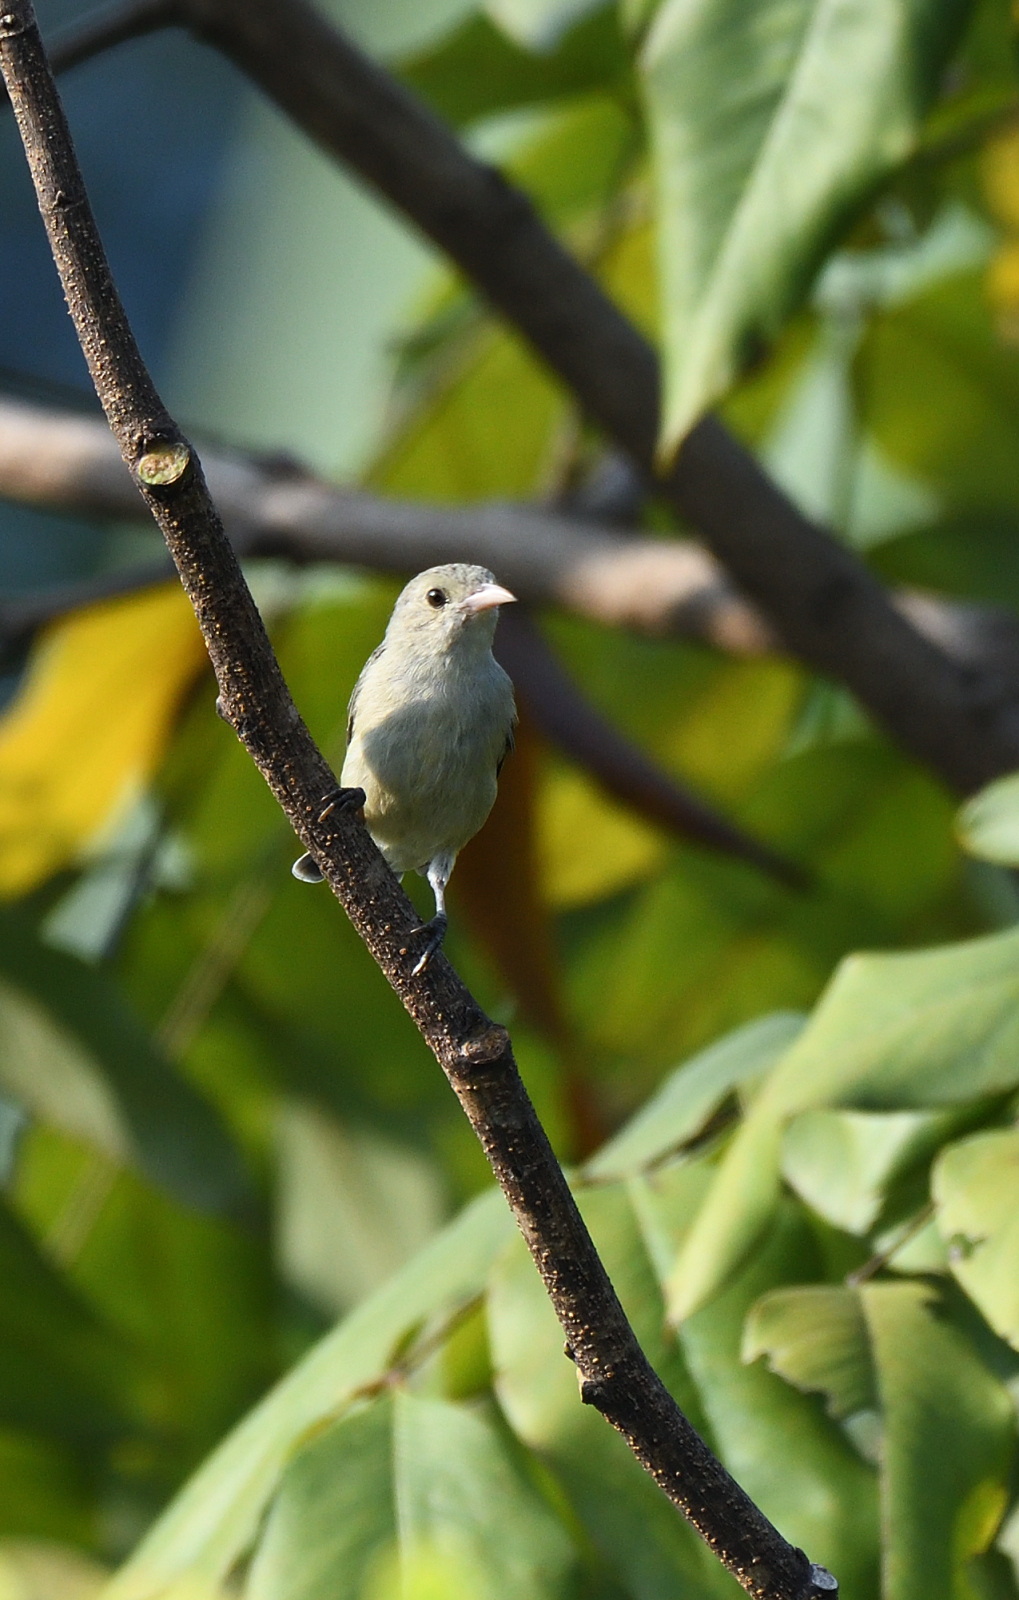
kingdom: Animalia
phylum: Chordata
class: Aves
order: Passeriformes
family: Dicaeidae
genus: Dicaeum
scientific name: Dicaeum erythrorhynchos
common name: Pale-billed flowerpecker
